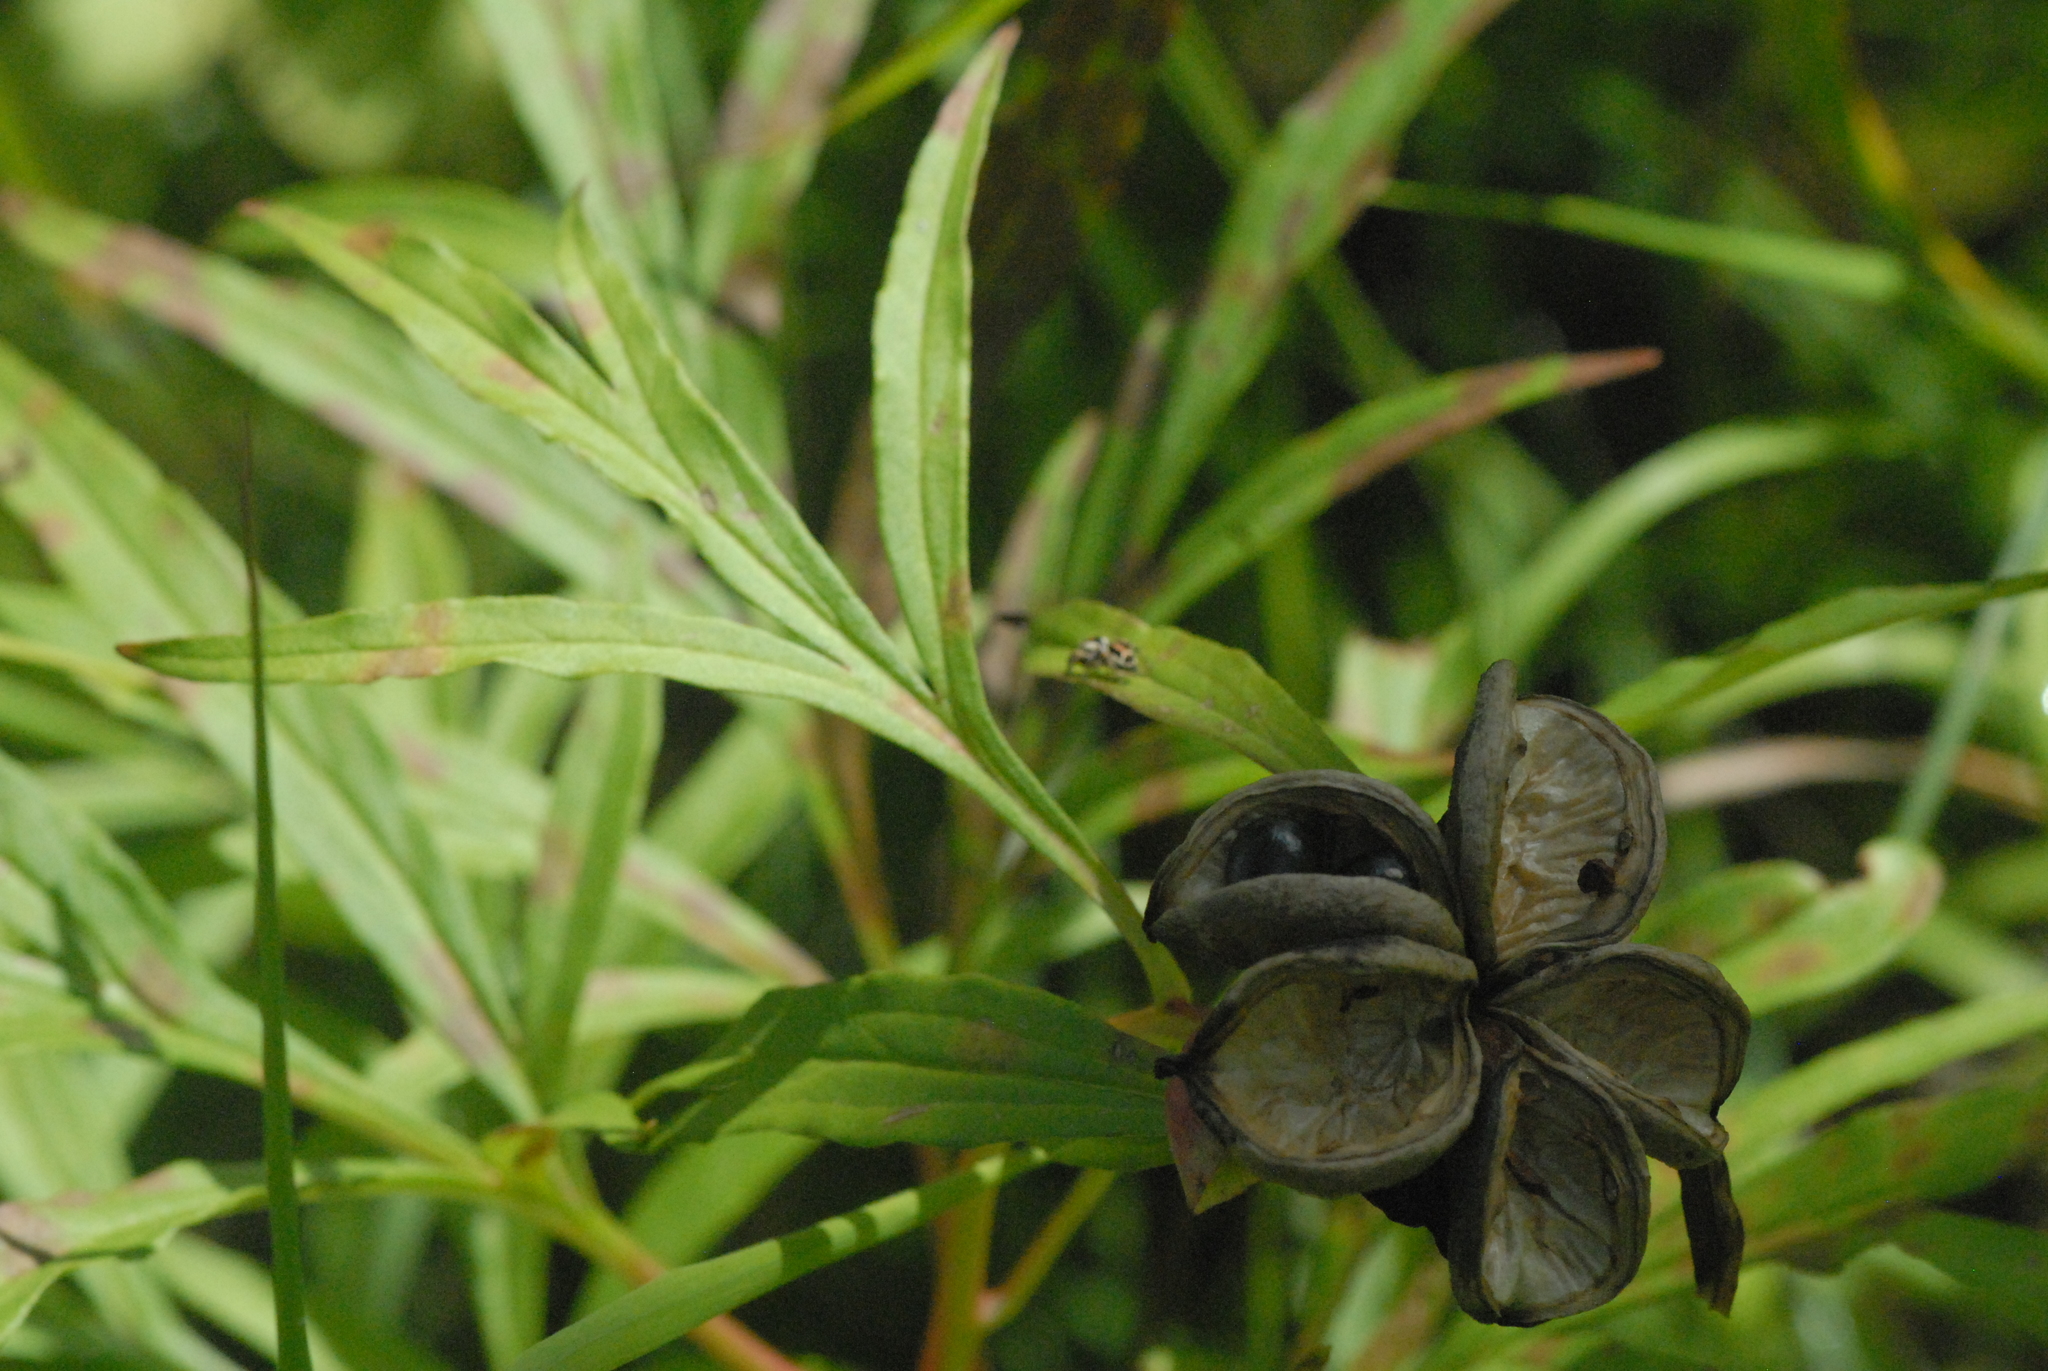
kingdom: Plantae
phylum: Tracheophyta
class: Magnoliopsida
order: Saxifragales
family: Paeoniaceae
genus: Paeonia
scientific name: Paeonia anomala
